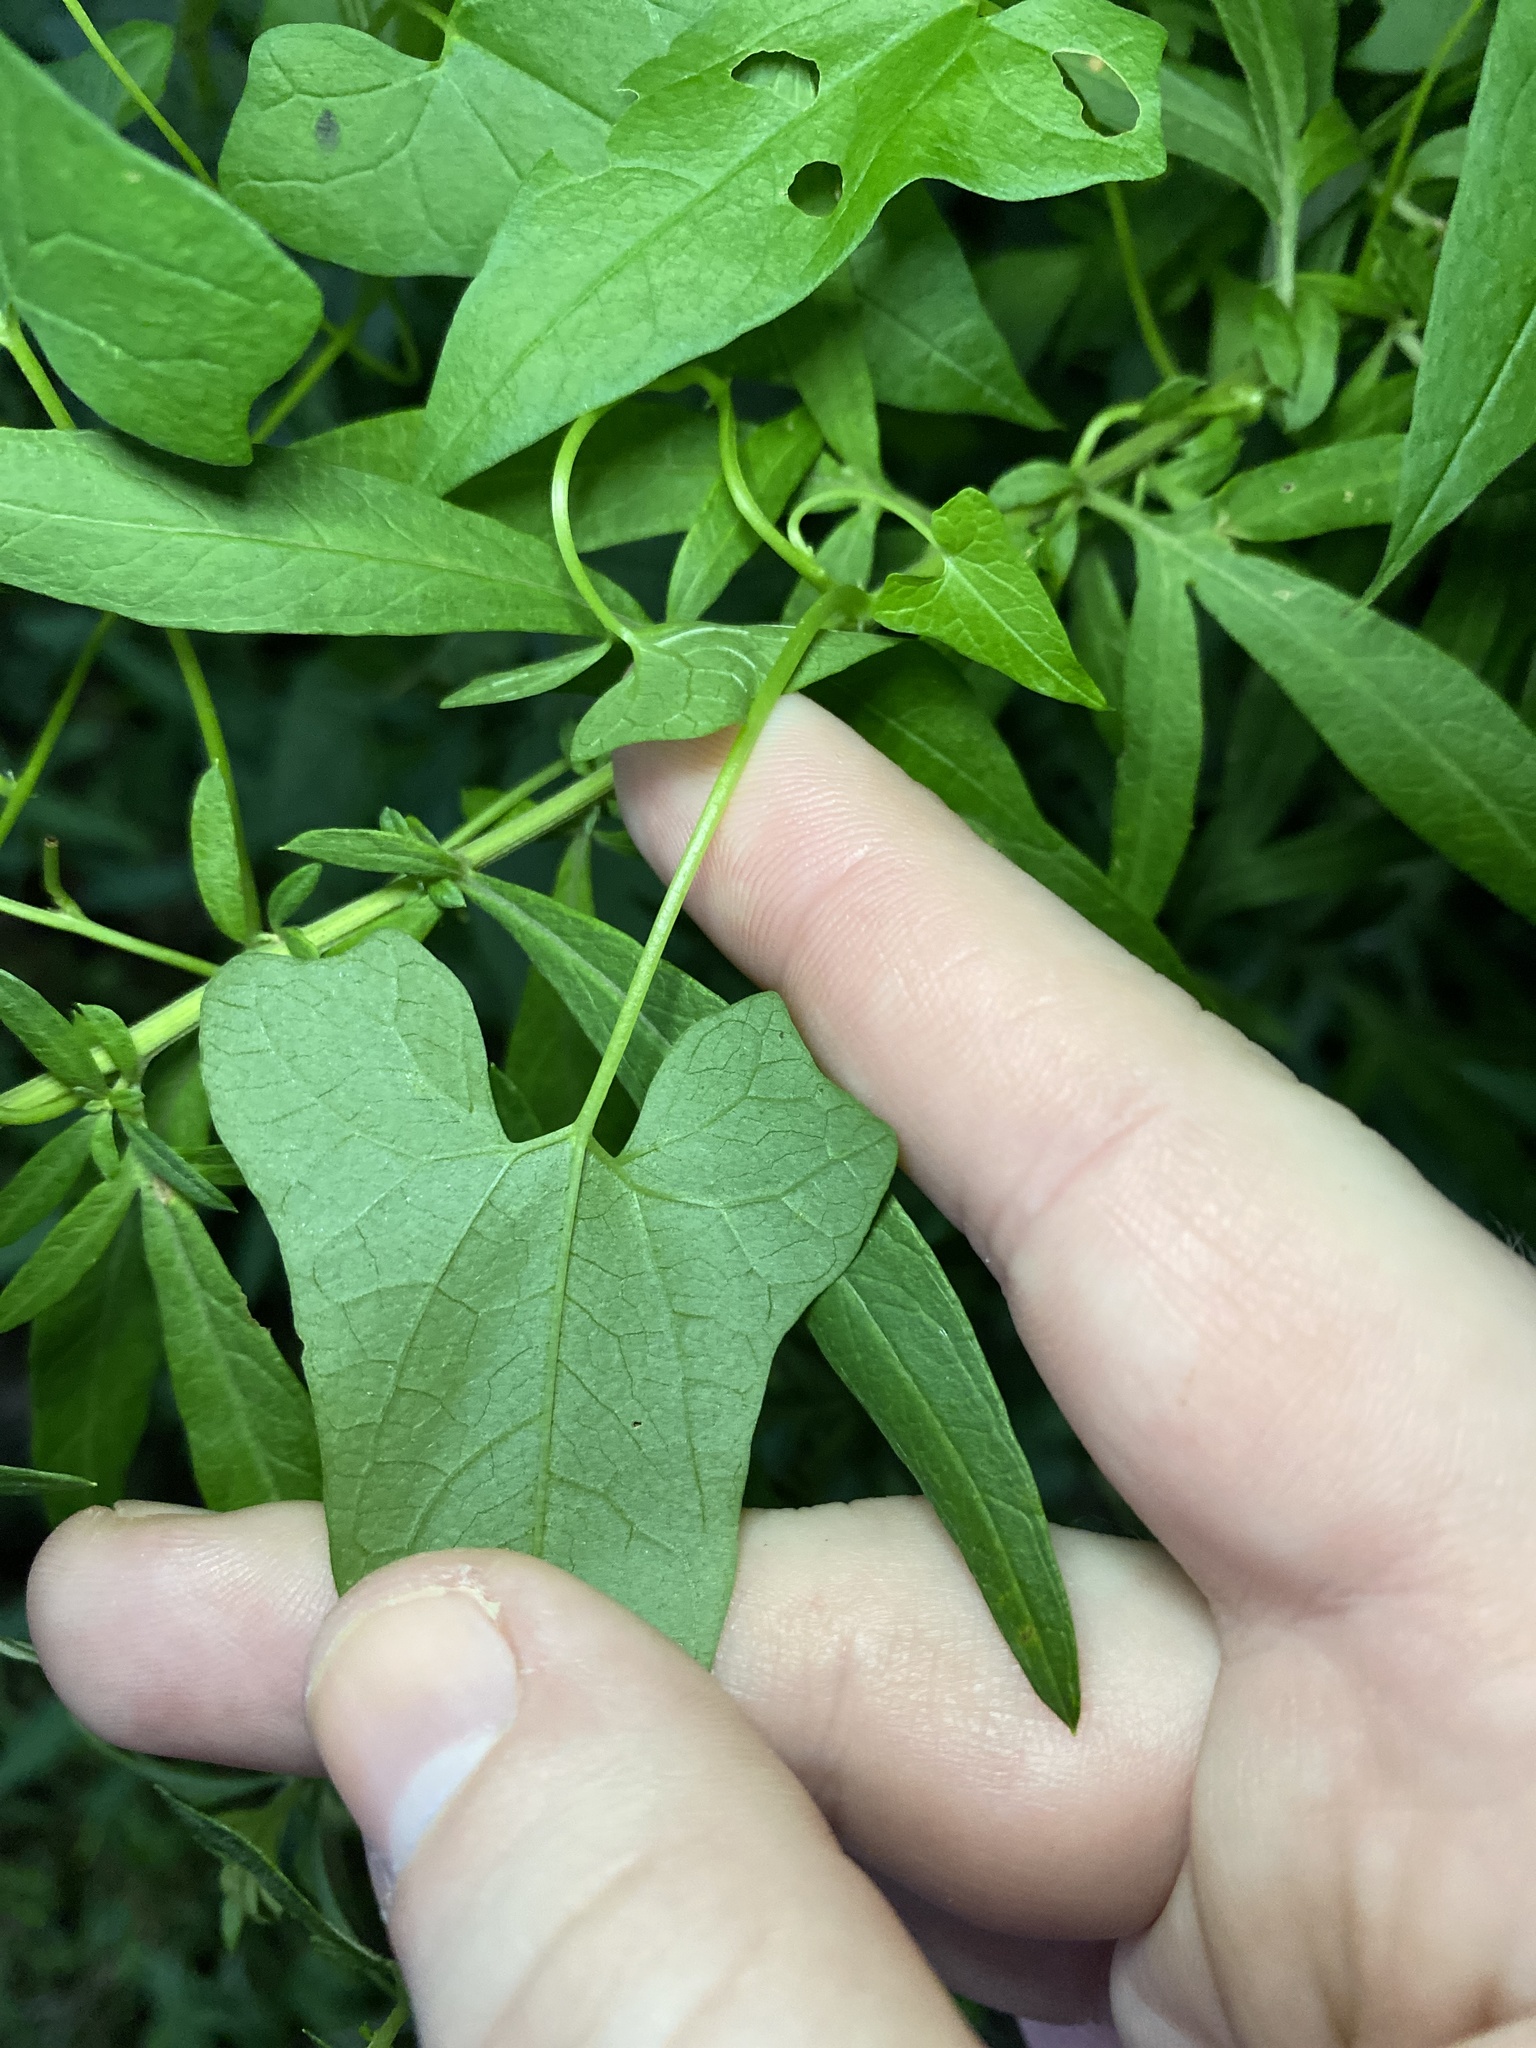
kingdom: Plantae
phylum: Tracheophyta
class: Magnoliopsida
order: Solanales
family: Convolvulaceae
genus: Calystegia
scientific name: Calystegia silvatica
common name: Large bindweed
